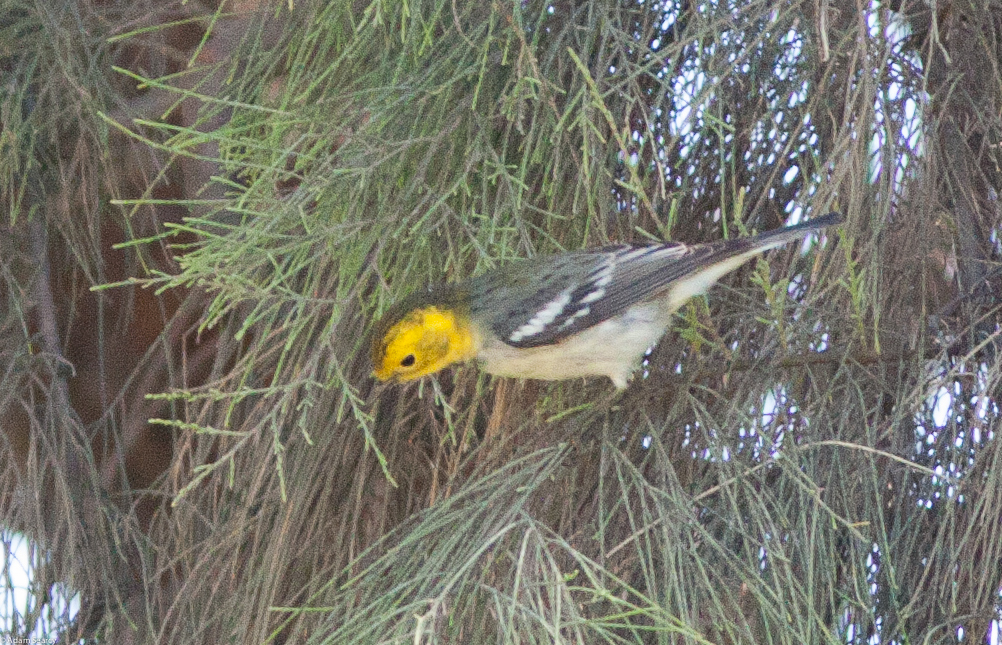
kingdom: Animalia
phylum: Chordata
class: Aves
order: Passeriformes
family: Parulidae
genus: Setophaga
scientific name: Setophaga occidentalis
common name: Hermit warbler
